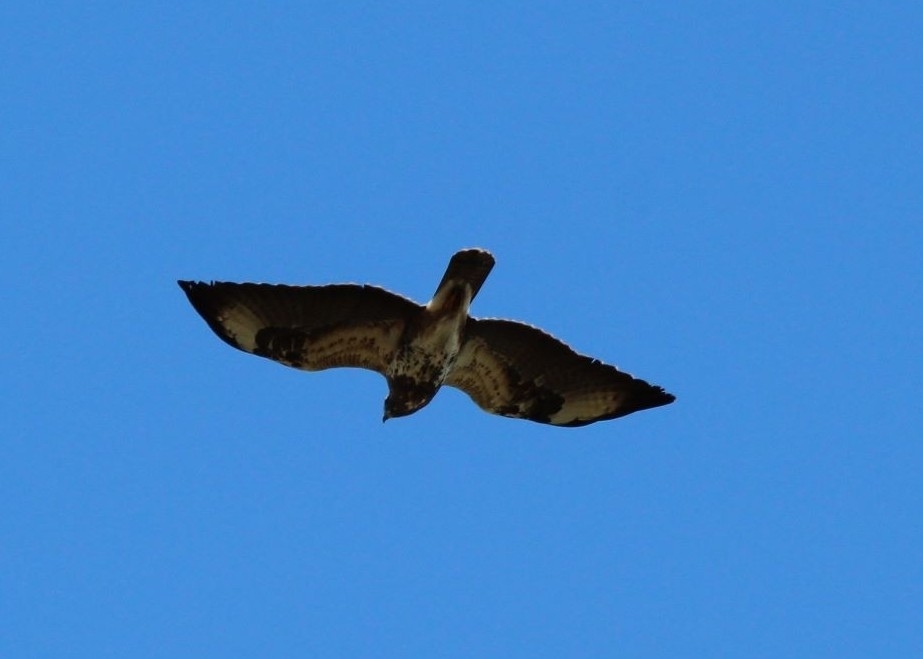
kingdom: Animalia
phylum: Chordata
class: Aves
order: Accipitriformes
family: Accipitridae
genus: Buteo
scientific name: Buteo buteo
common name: Common buzzard
